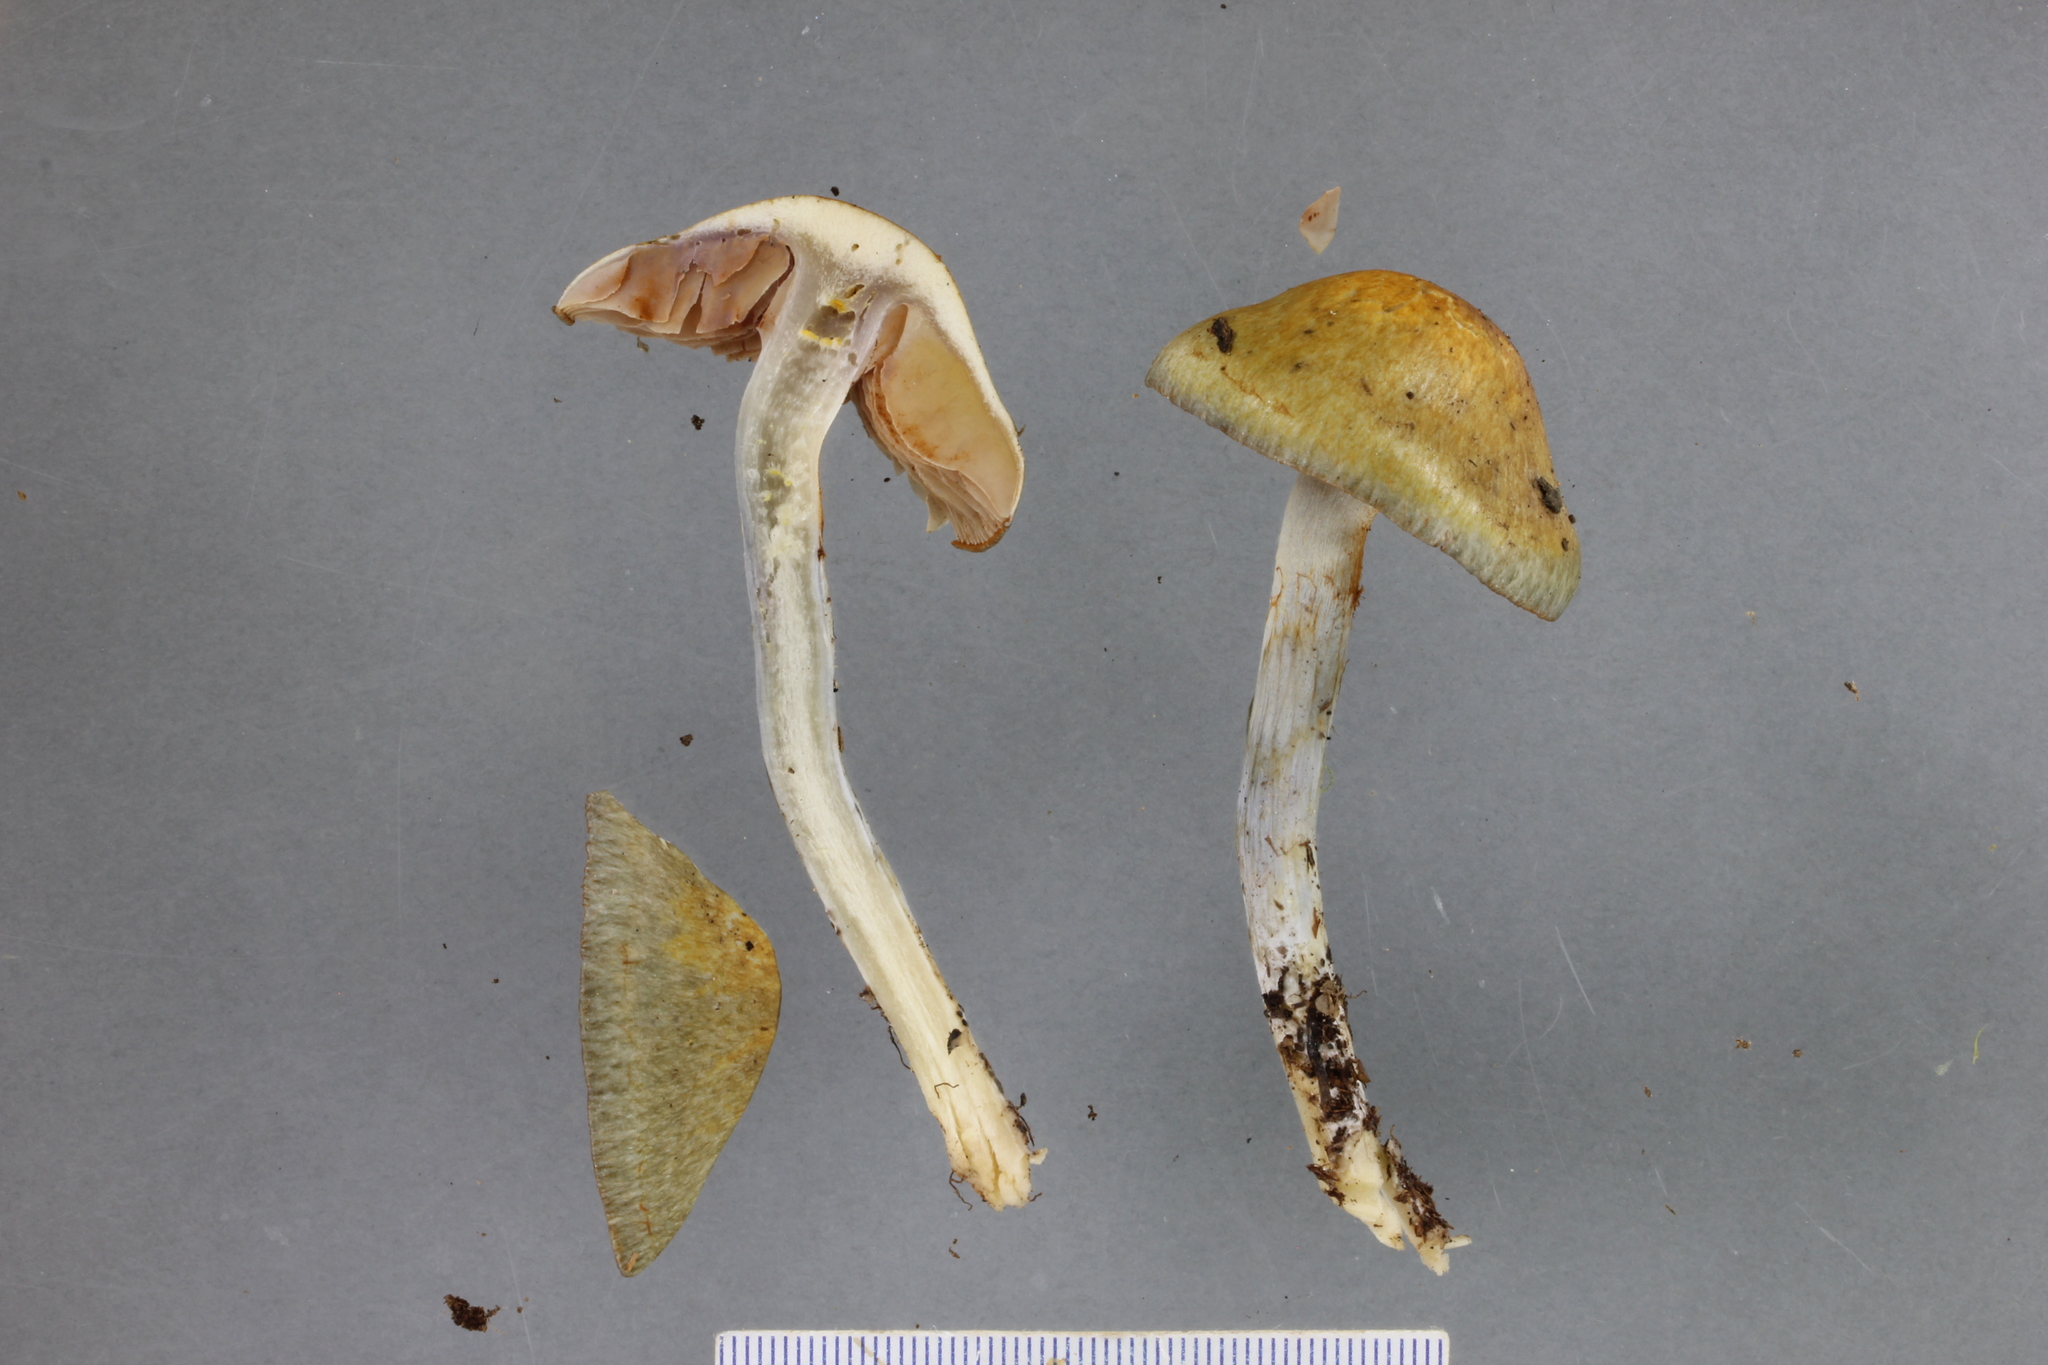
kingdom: Fungi
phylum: Basidiomycota
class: Agaricomycetes
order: Agaricales
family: Cortinariaceae
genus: Cortinarius
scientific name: Cortinarius calaisopus
